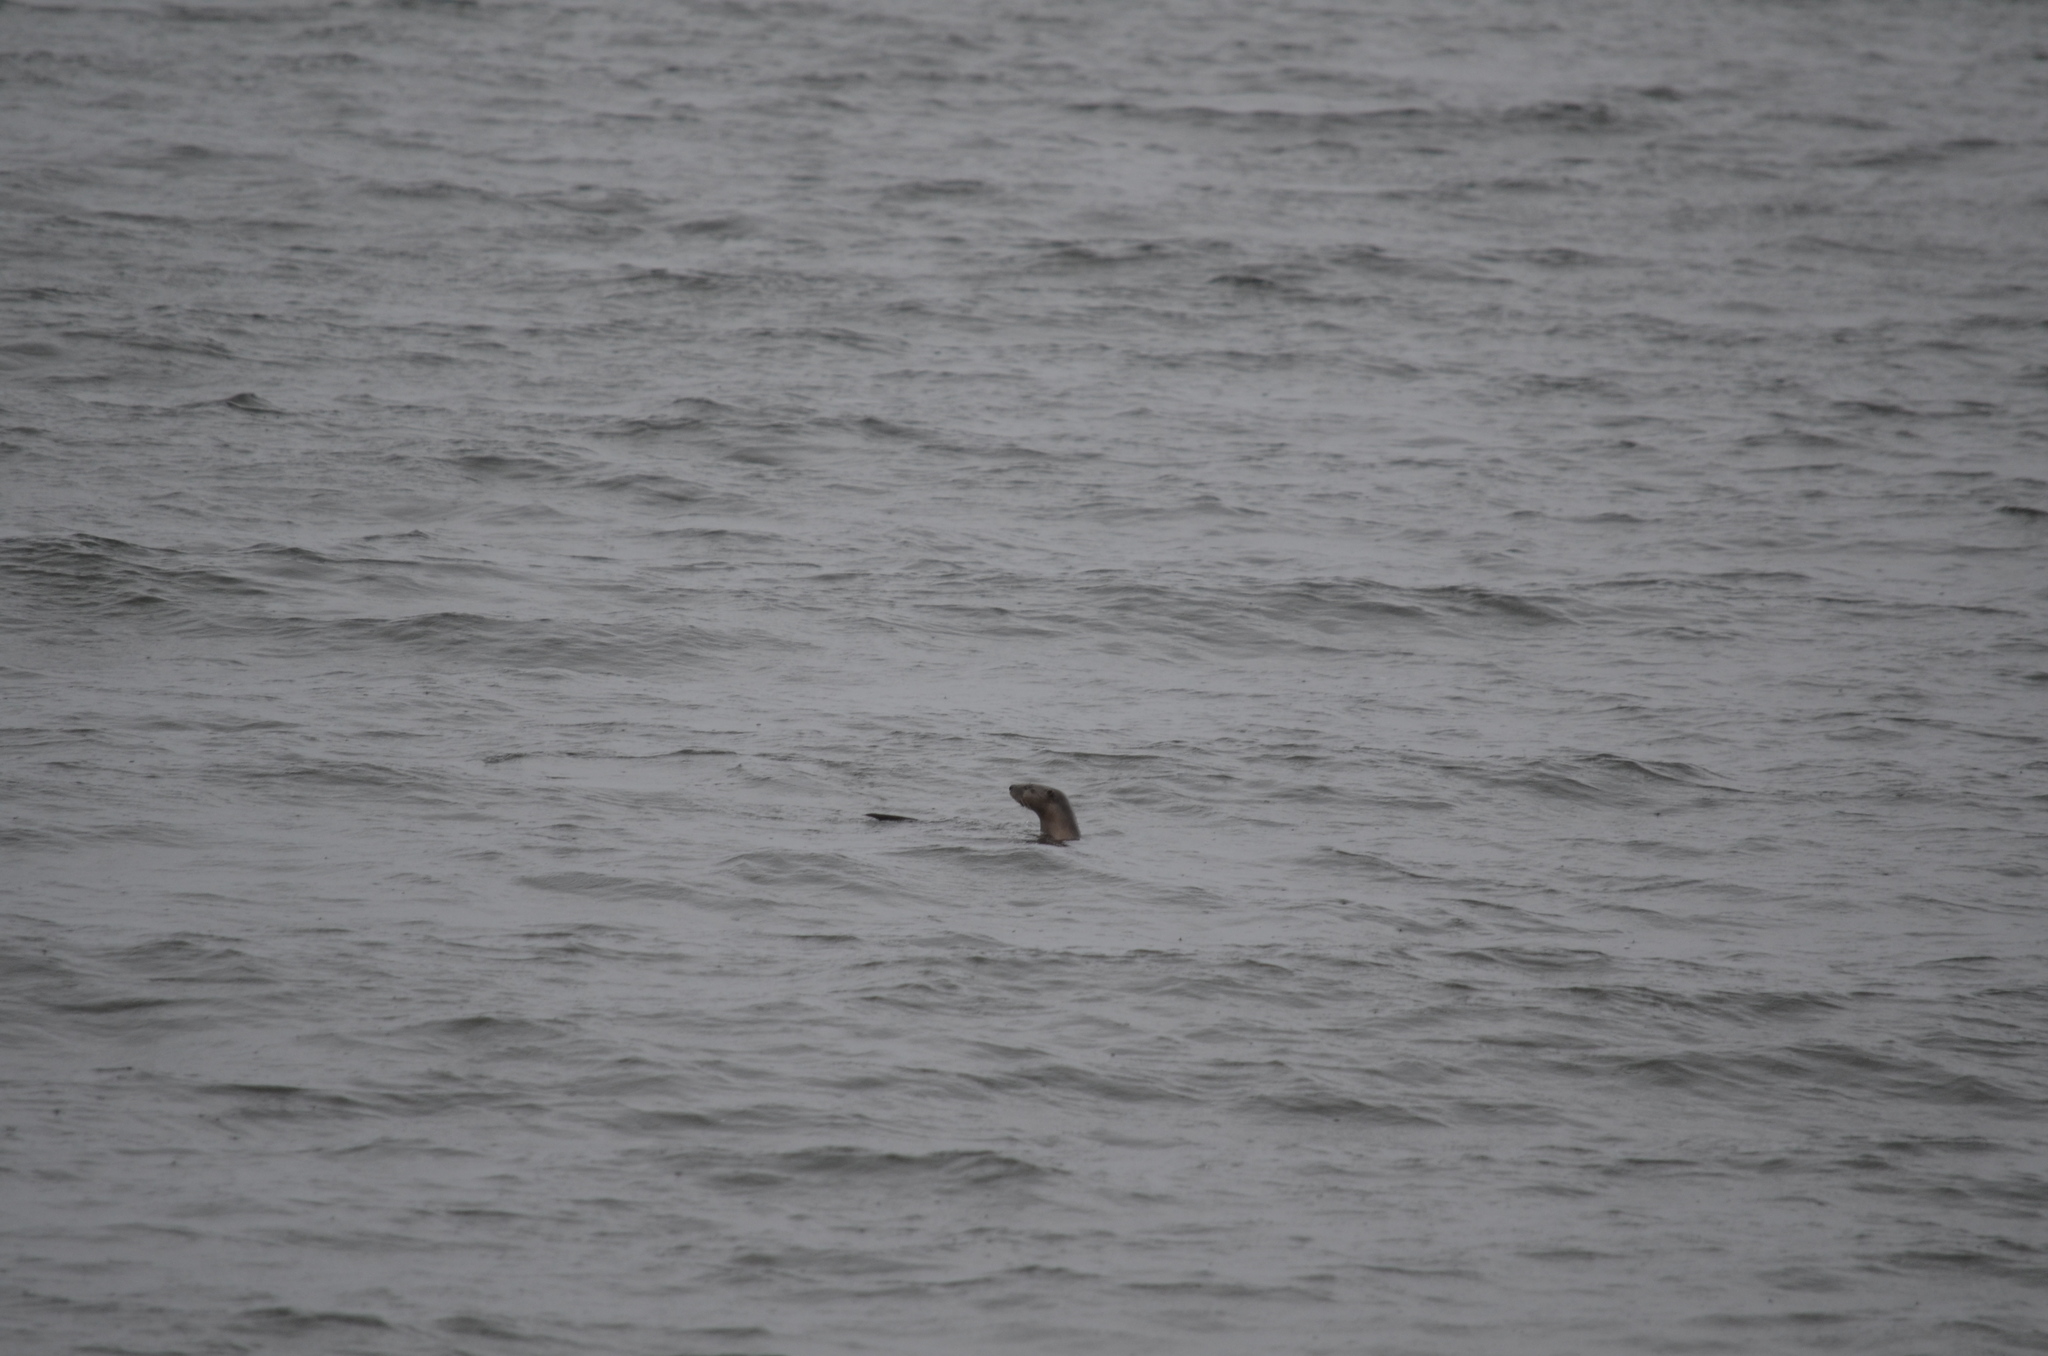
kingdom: Animalia
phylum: Chordata
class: Mammalia
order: Carnivora
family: Mustelidae
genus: Lontra
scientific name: Lontra canadensis
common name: North american river otter
